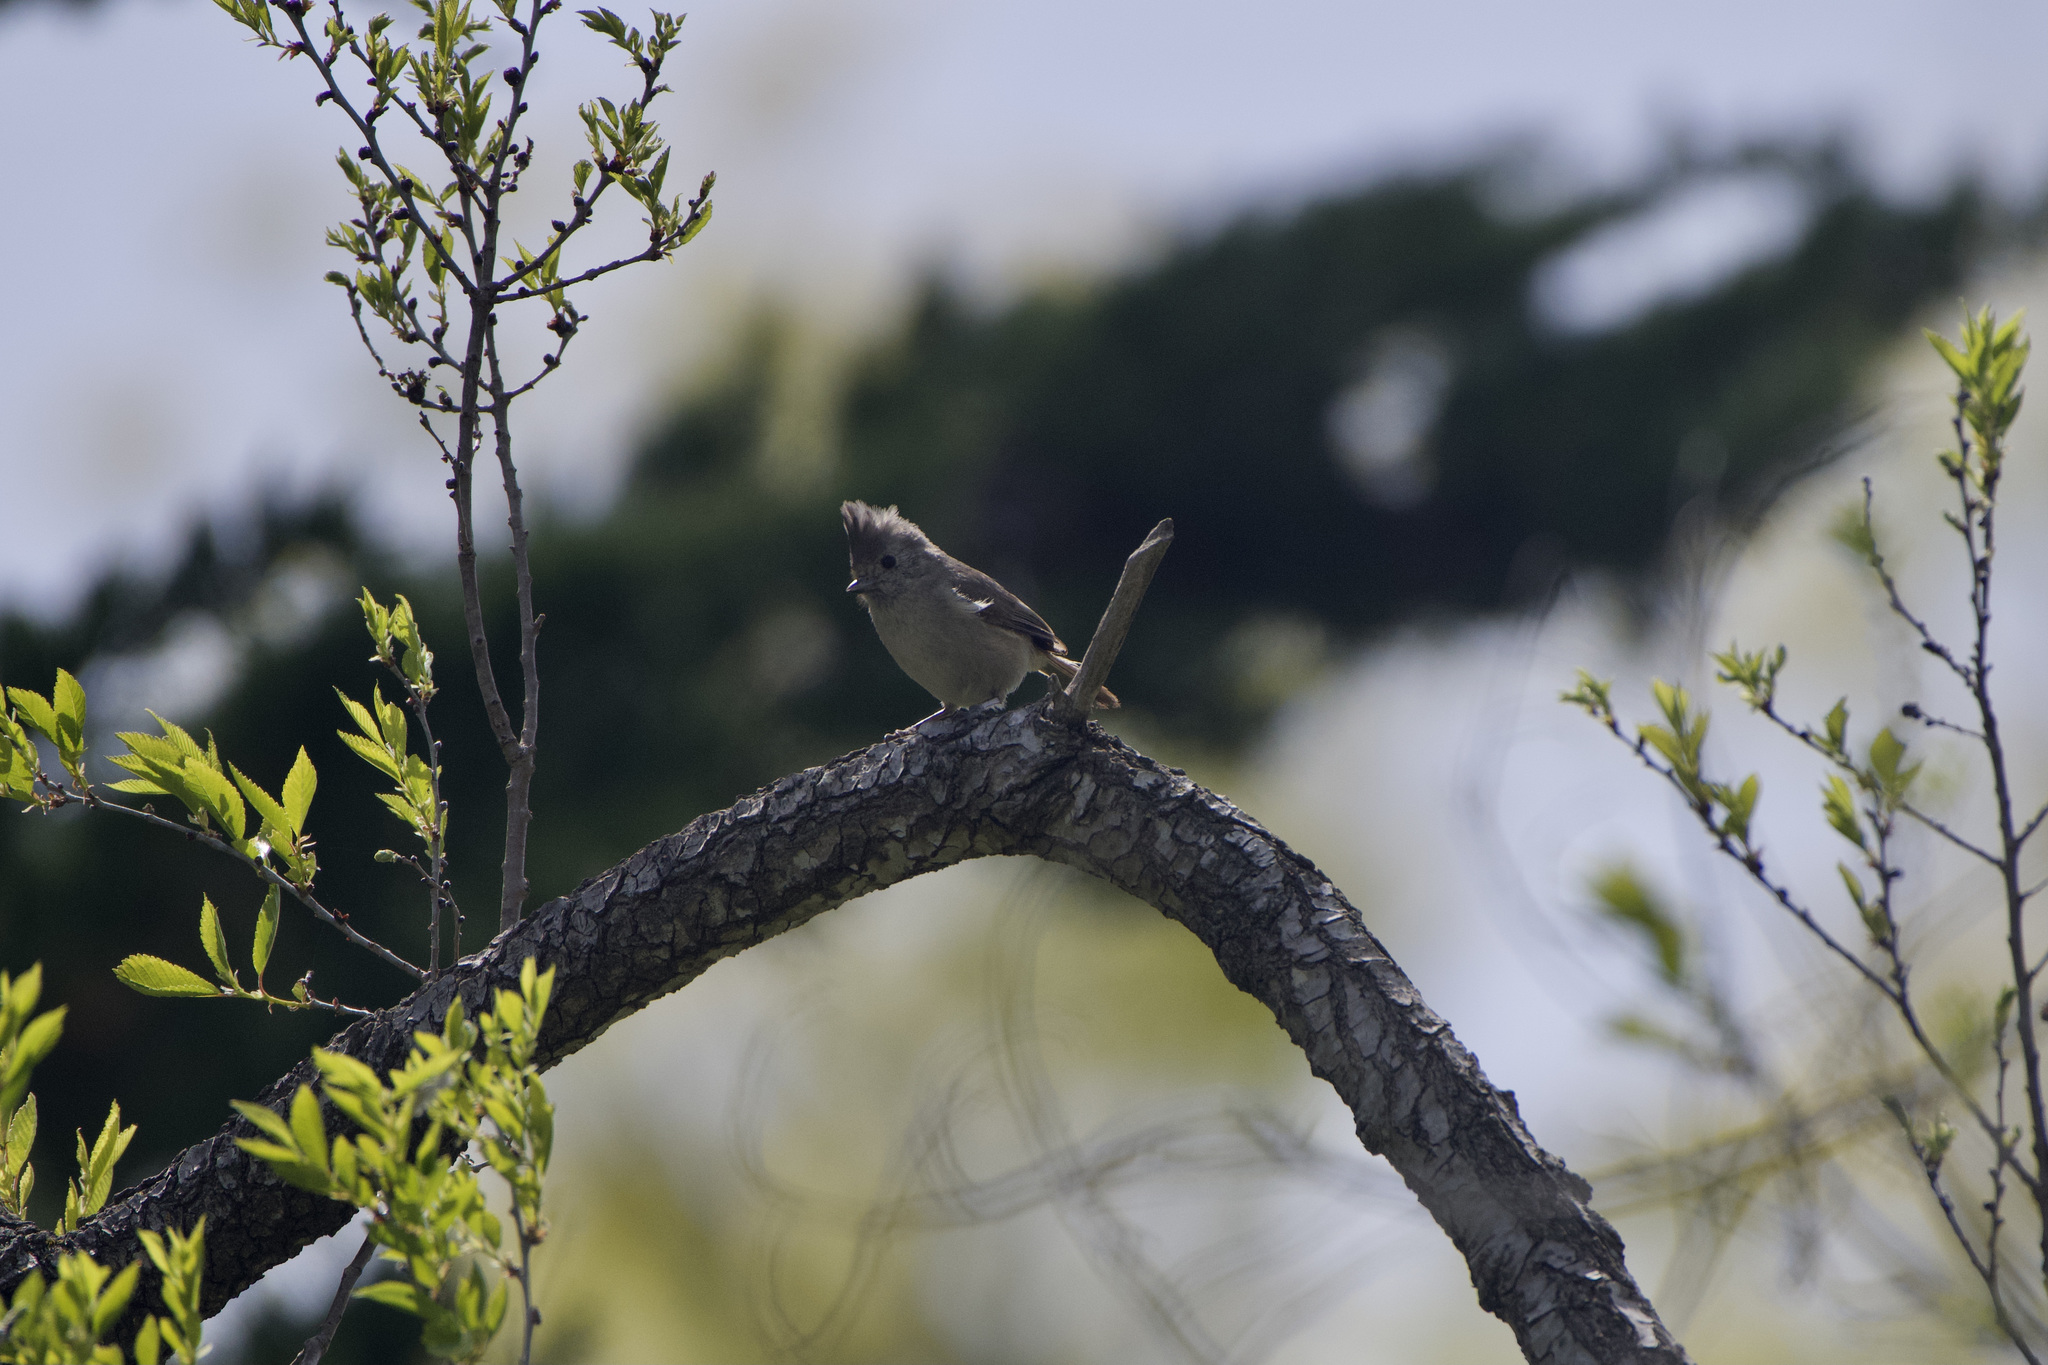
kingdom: Animalia
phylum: Chordata
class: Aves
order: Passeriformes
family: Paridae
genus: Baeolophus
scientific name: Baeolophus inornatus
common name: Oak titmouse
